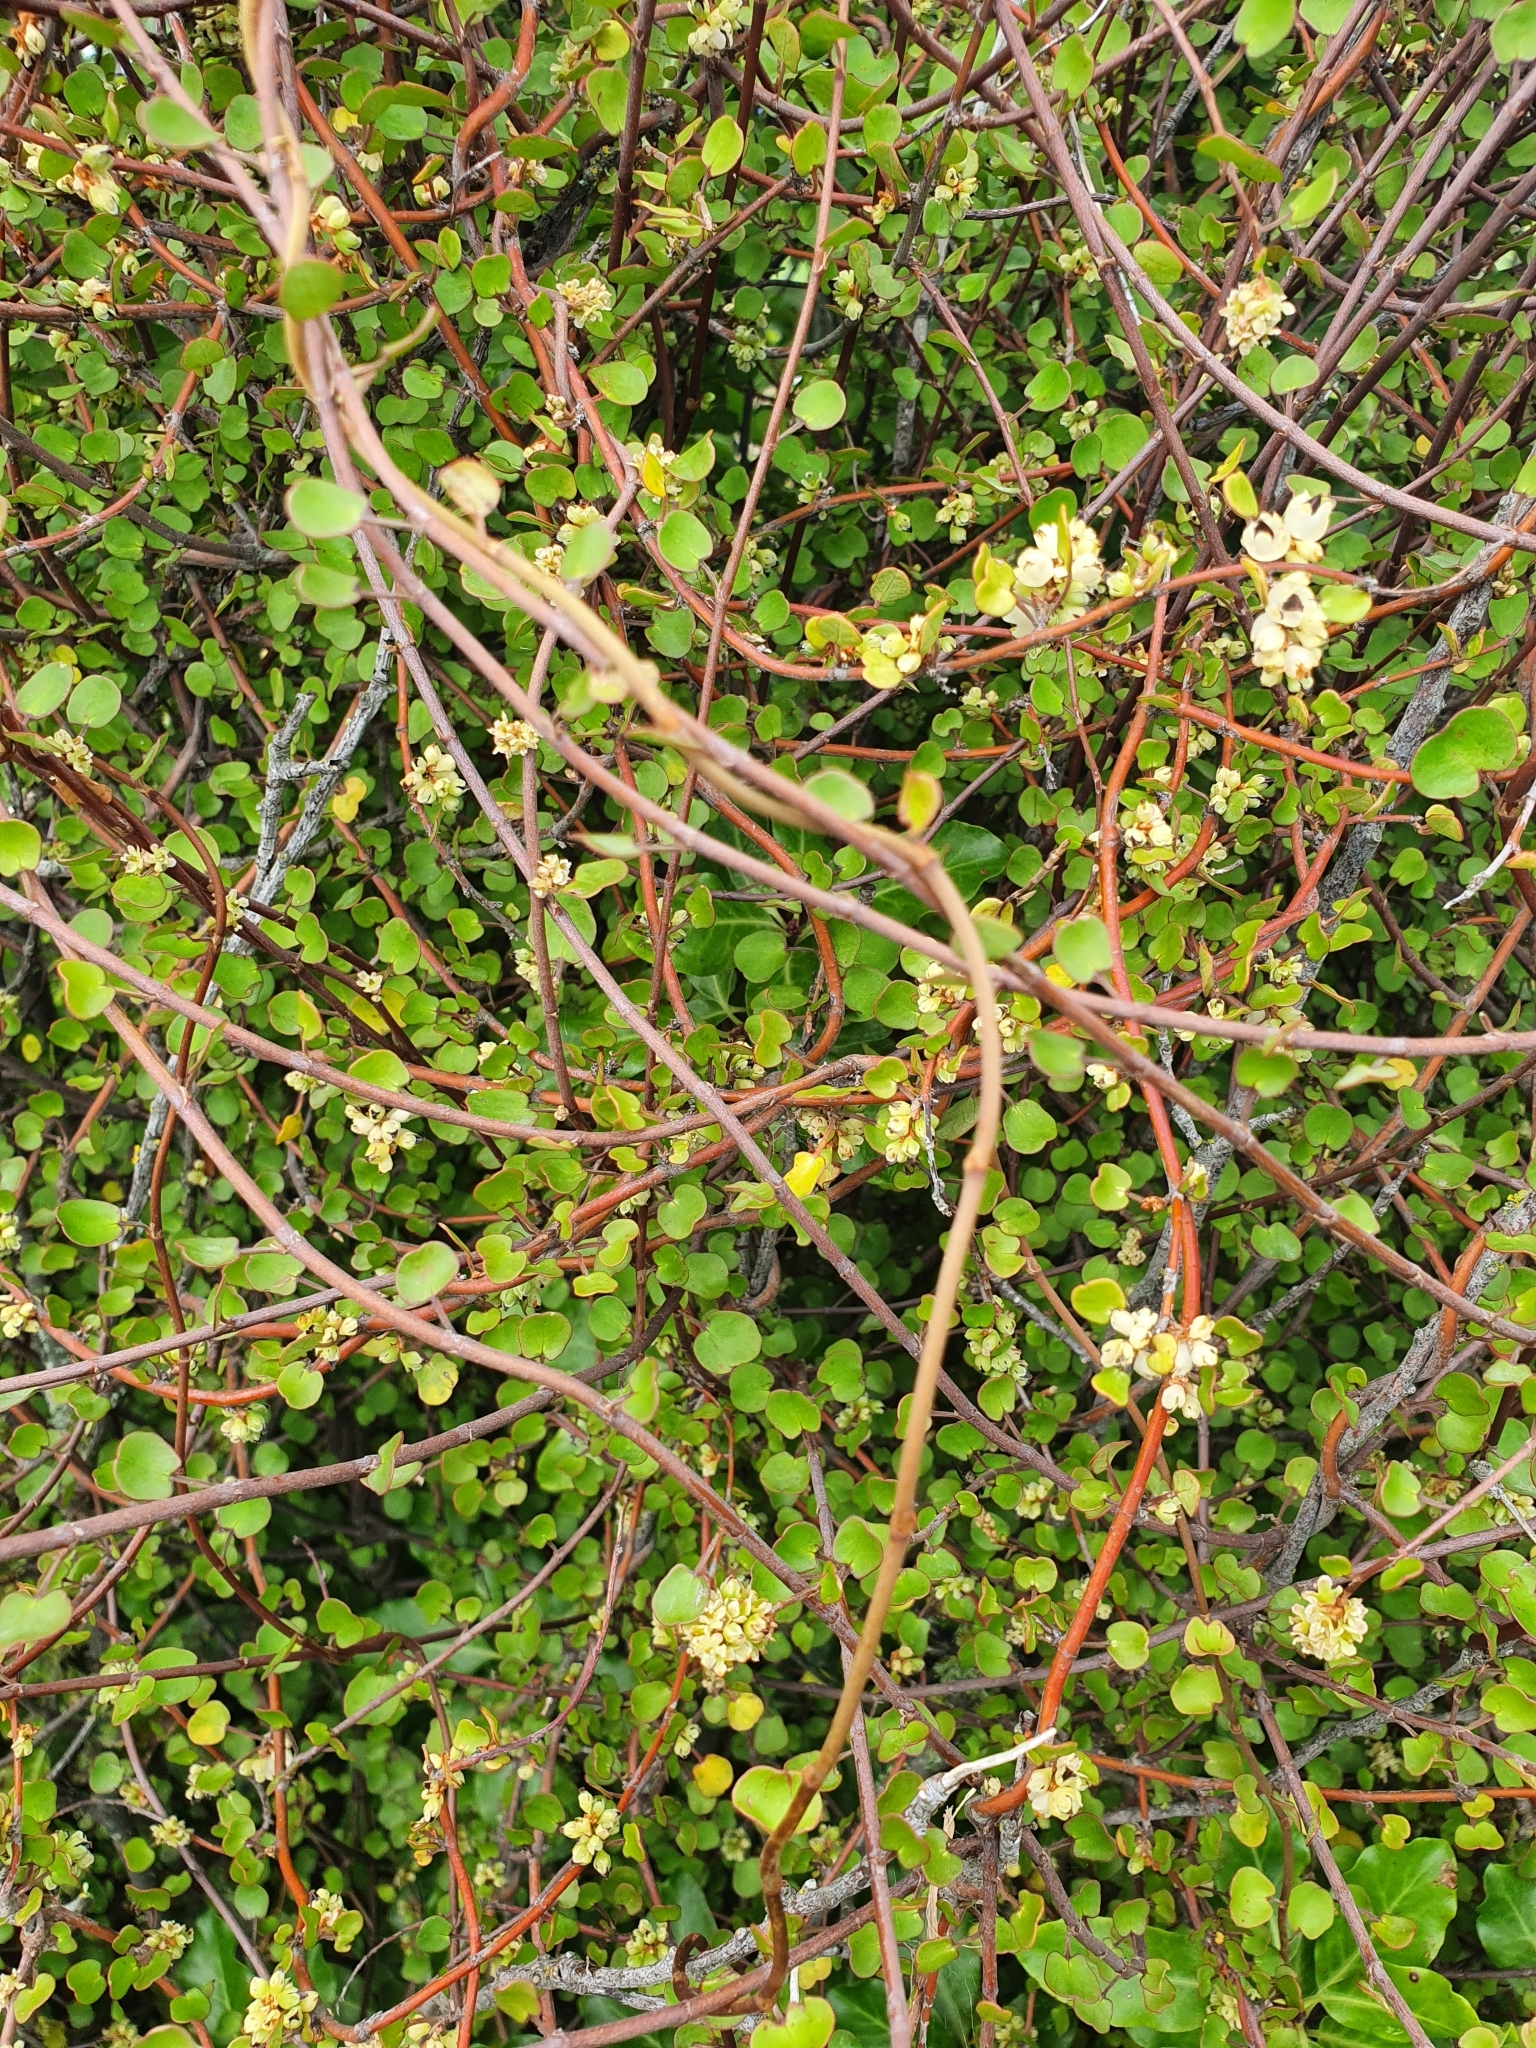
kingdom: Plantae
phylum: Tracheophyta
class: Magnoliopsida
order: Caryophyllales
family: Polygonaceae
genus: Muehlenbeckia
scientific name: Muehlenbeckia complexa
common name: Wireplant
